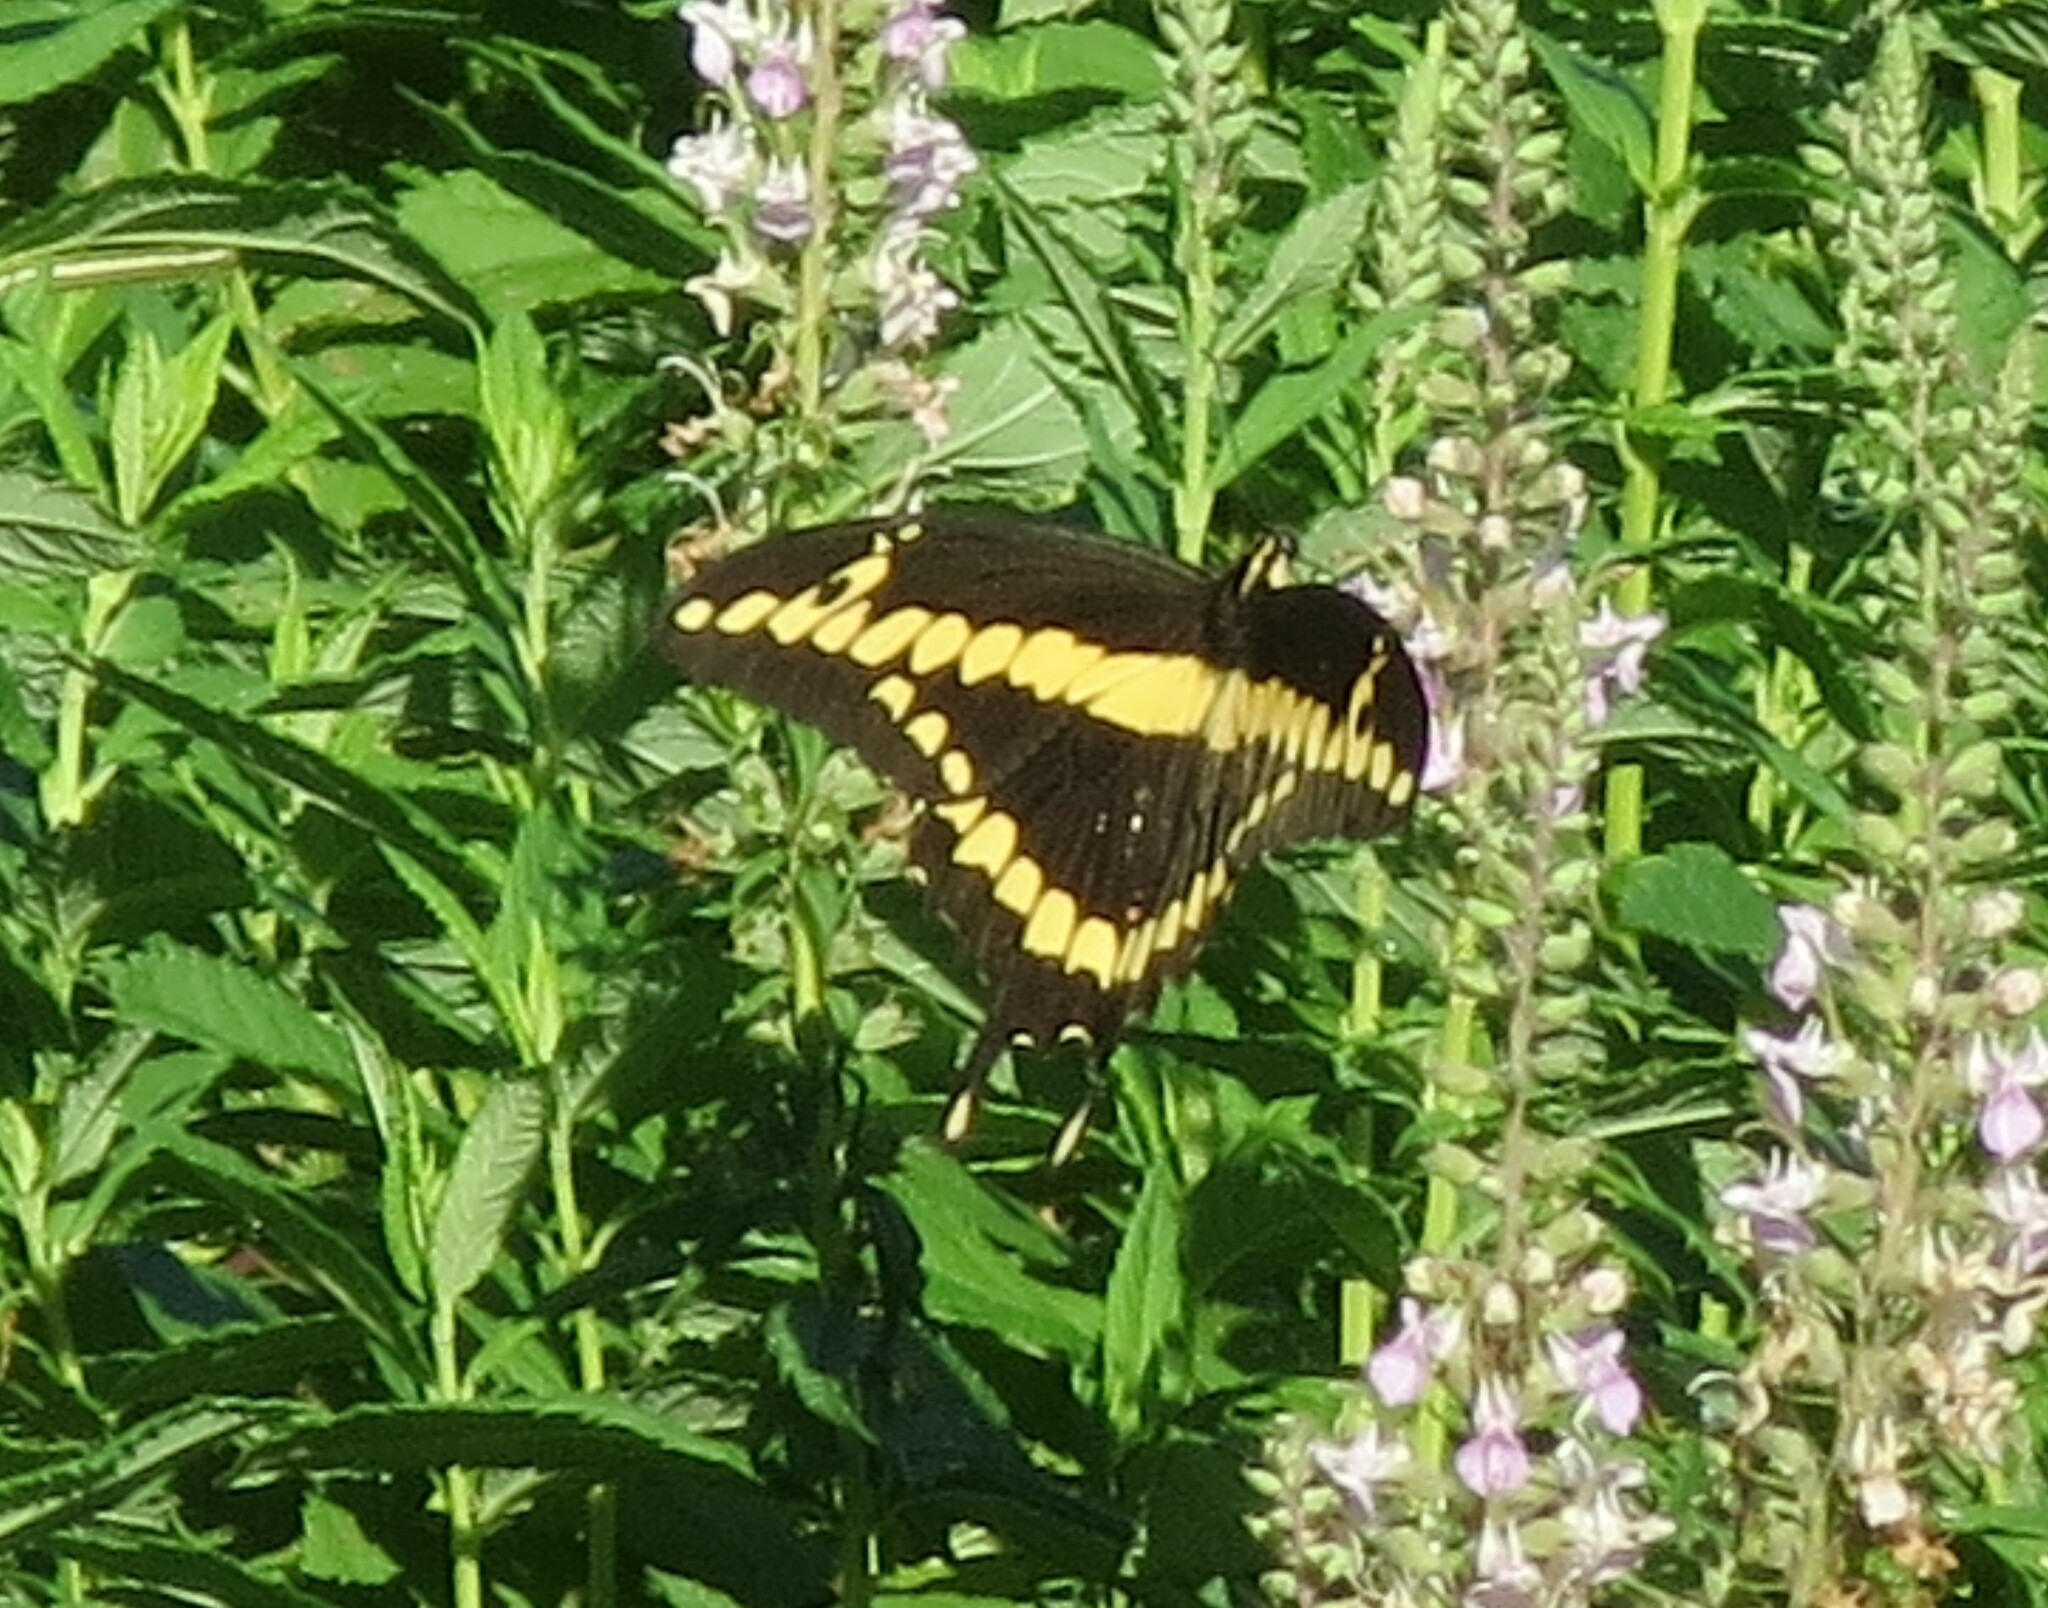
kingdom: Animalia
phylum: Arthropoda
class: Insecta
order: Lepidoptera
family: Papilionidae
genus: Papilio
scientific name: Papilio rumiko
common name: Western giant swallowtail
